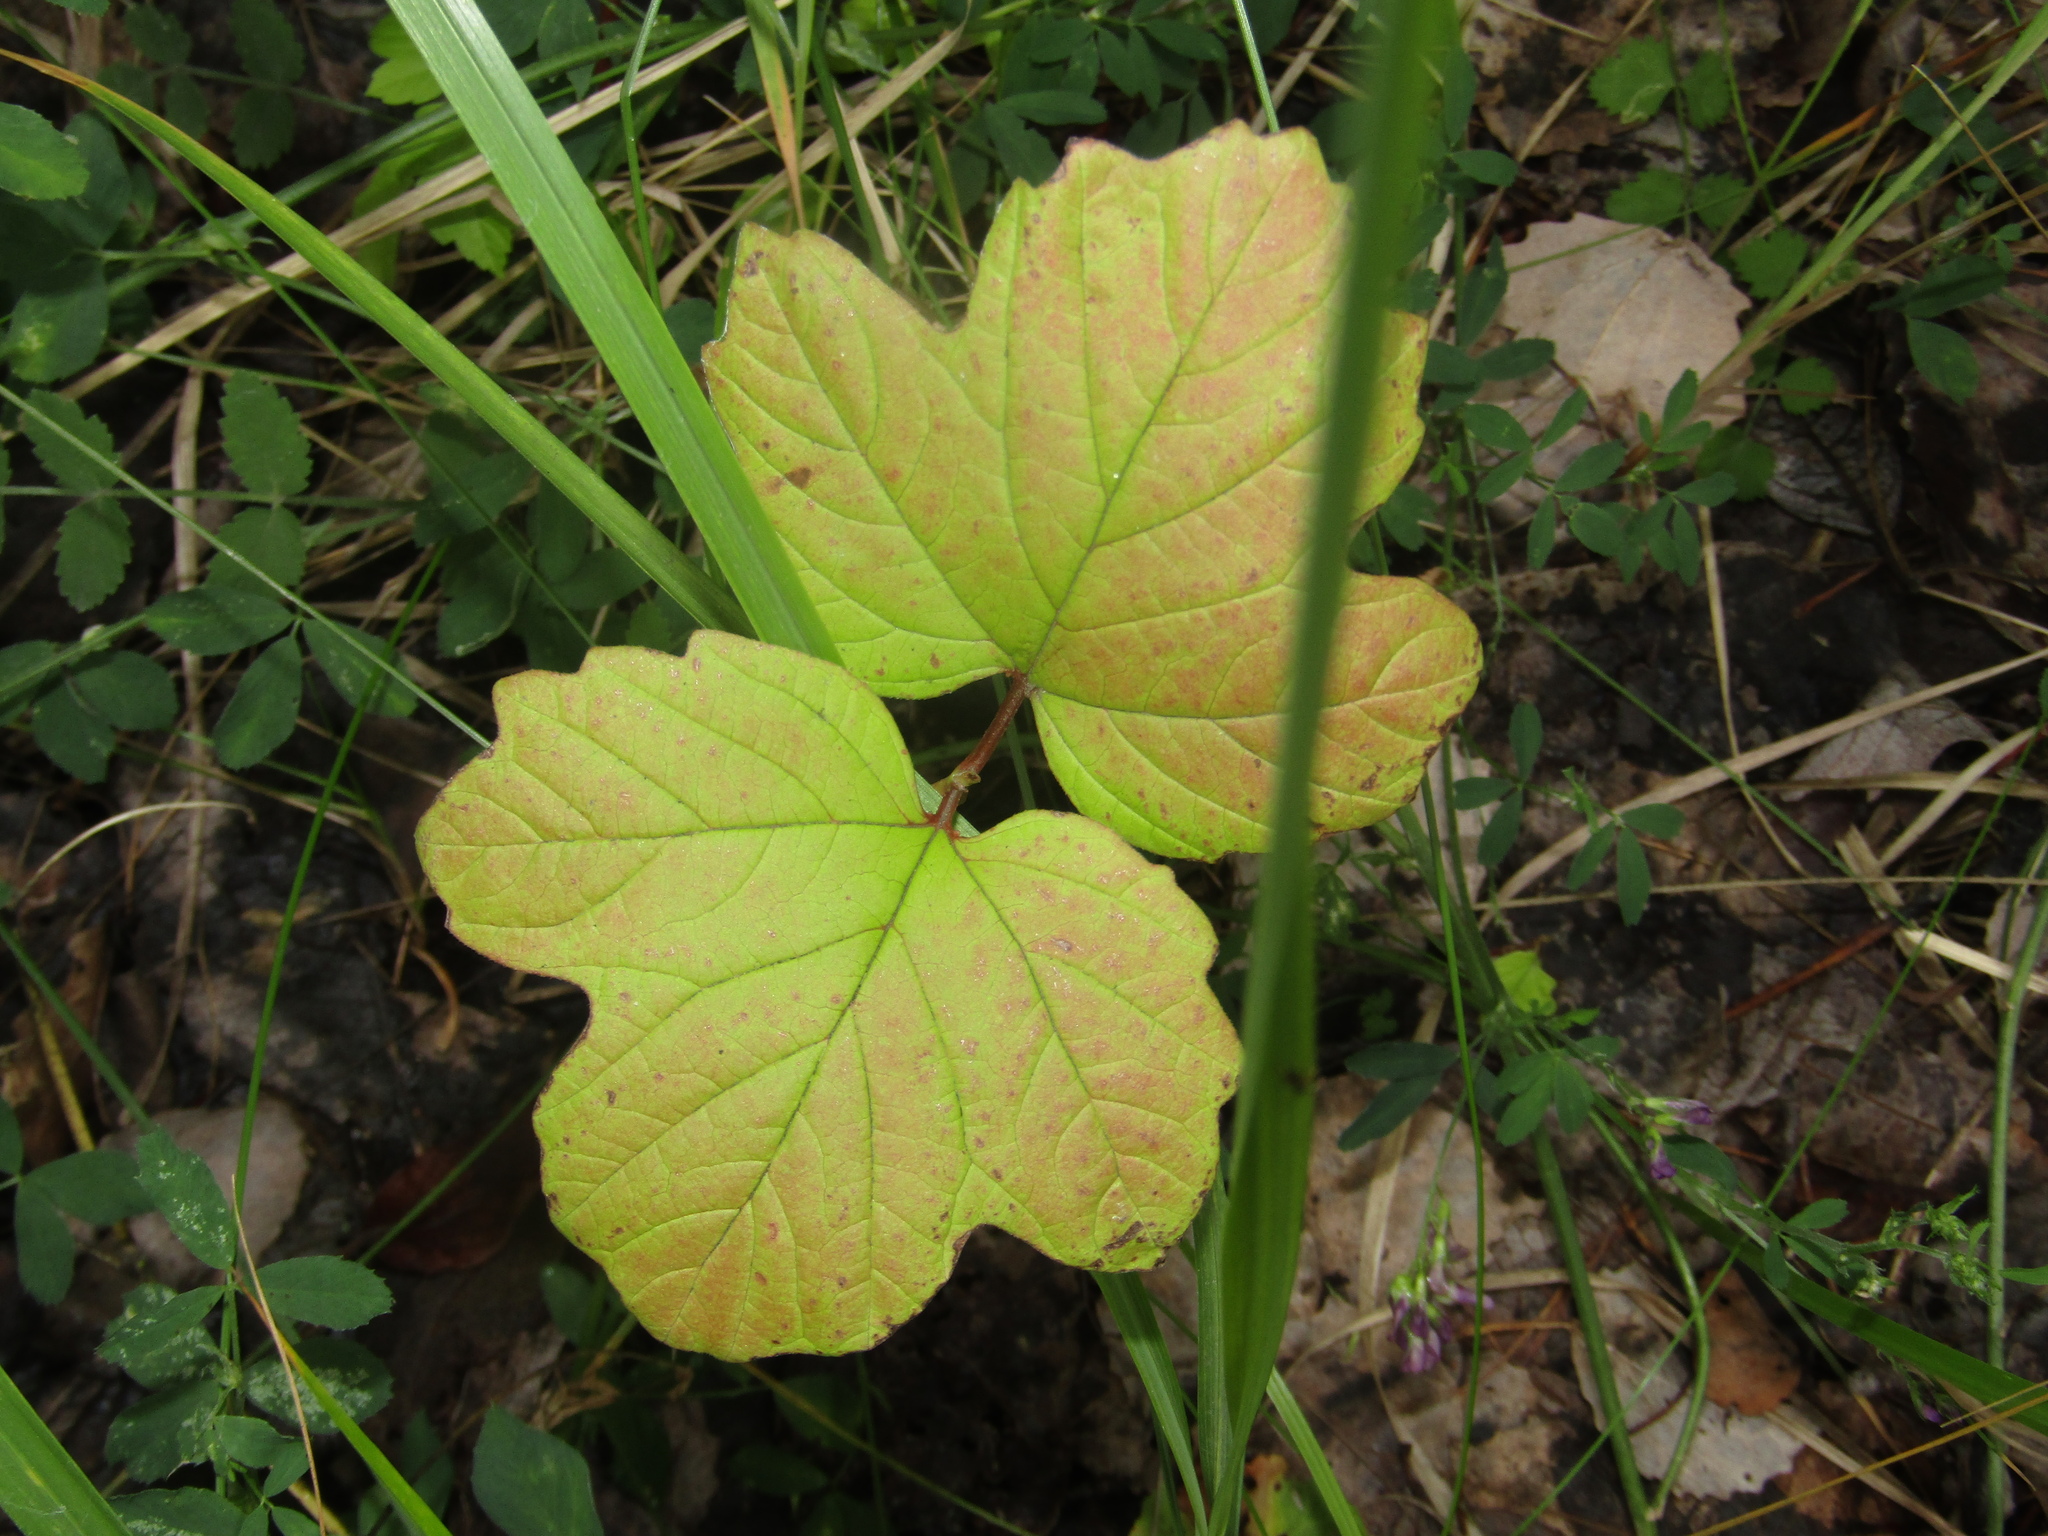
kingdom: Plantae
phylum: Tracheophyta
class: Magnoliopsida
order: Dipsacales
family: Viburnaceae
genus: Viburnum
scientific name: Viburnum opulus
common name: Guelder-rose
